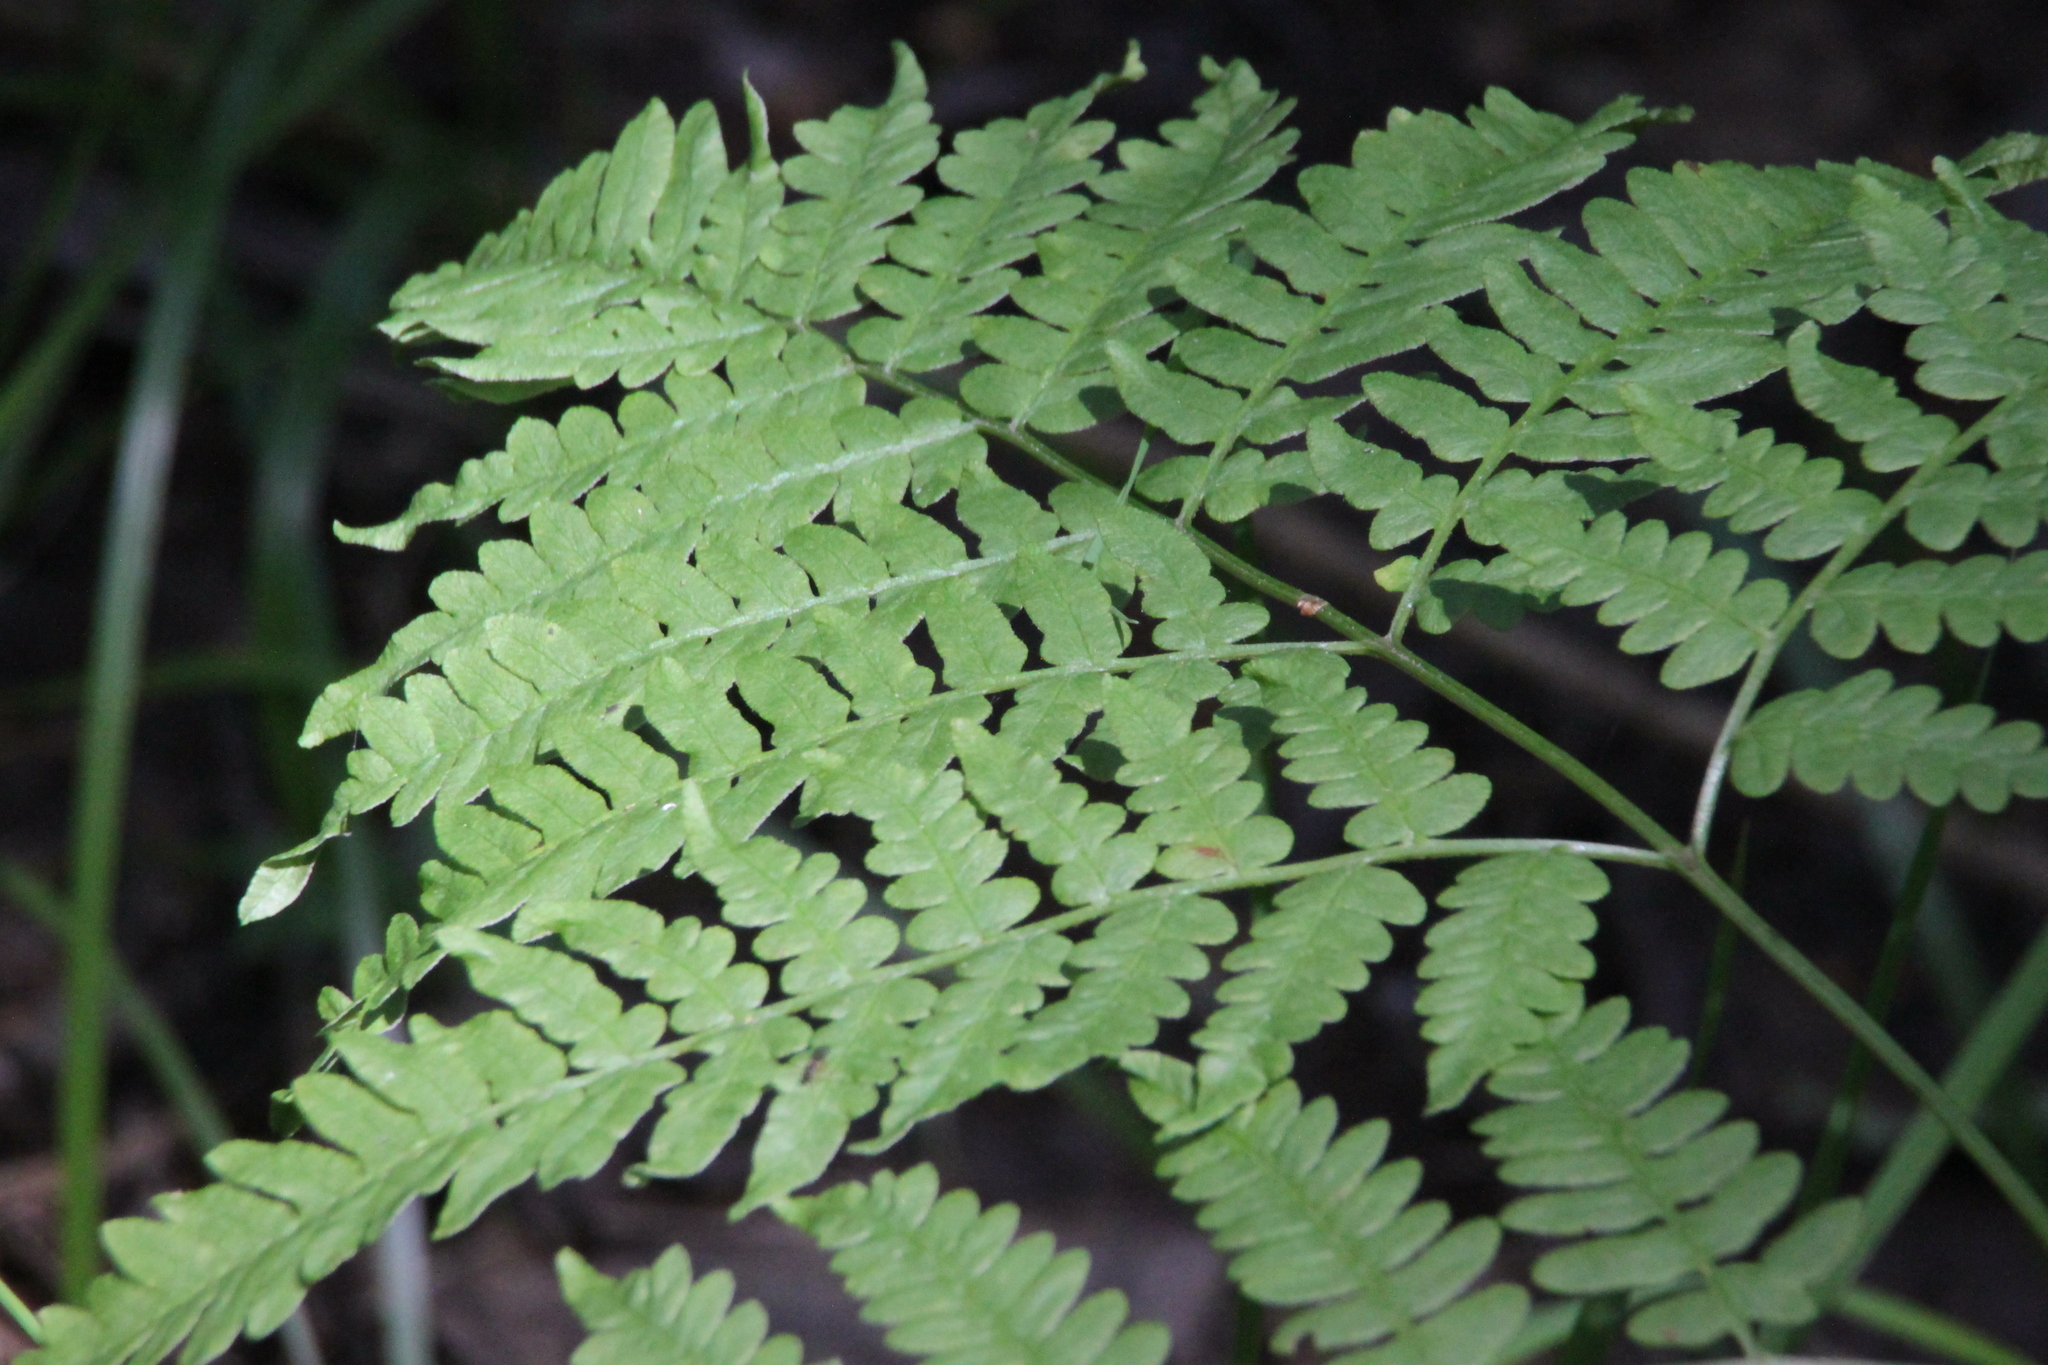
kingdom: Plantae
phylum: Tracheophyta
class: Polypodiopsida
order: Polypodiales
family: Dennstaedtiaceae
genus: Pteridium
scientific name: Pteridium aquilinum
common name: Bracken
